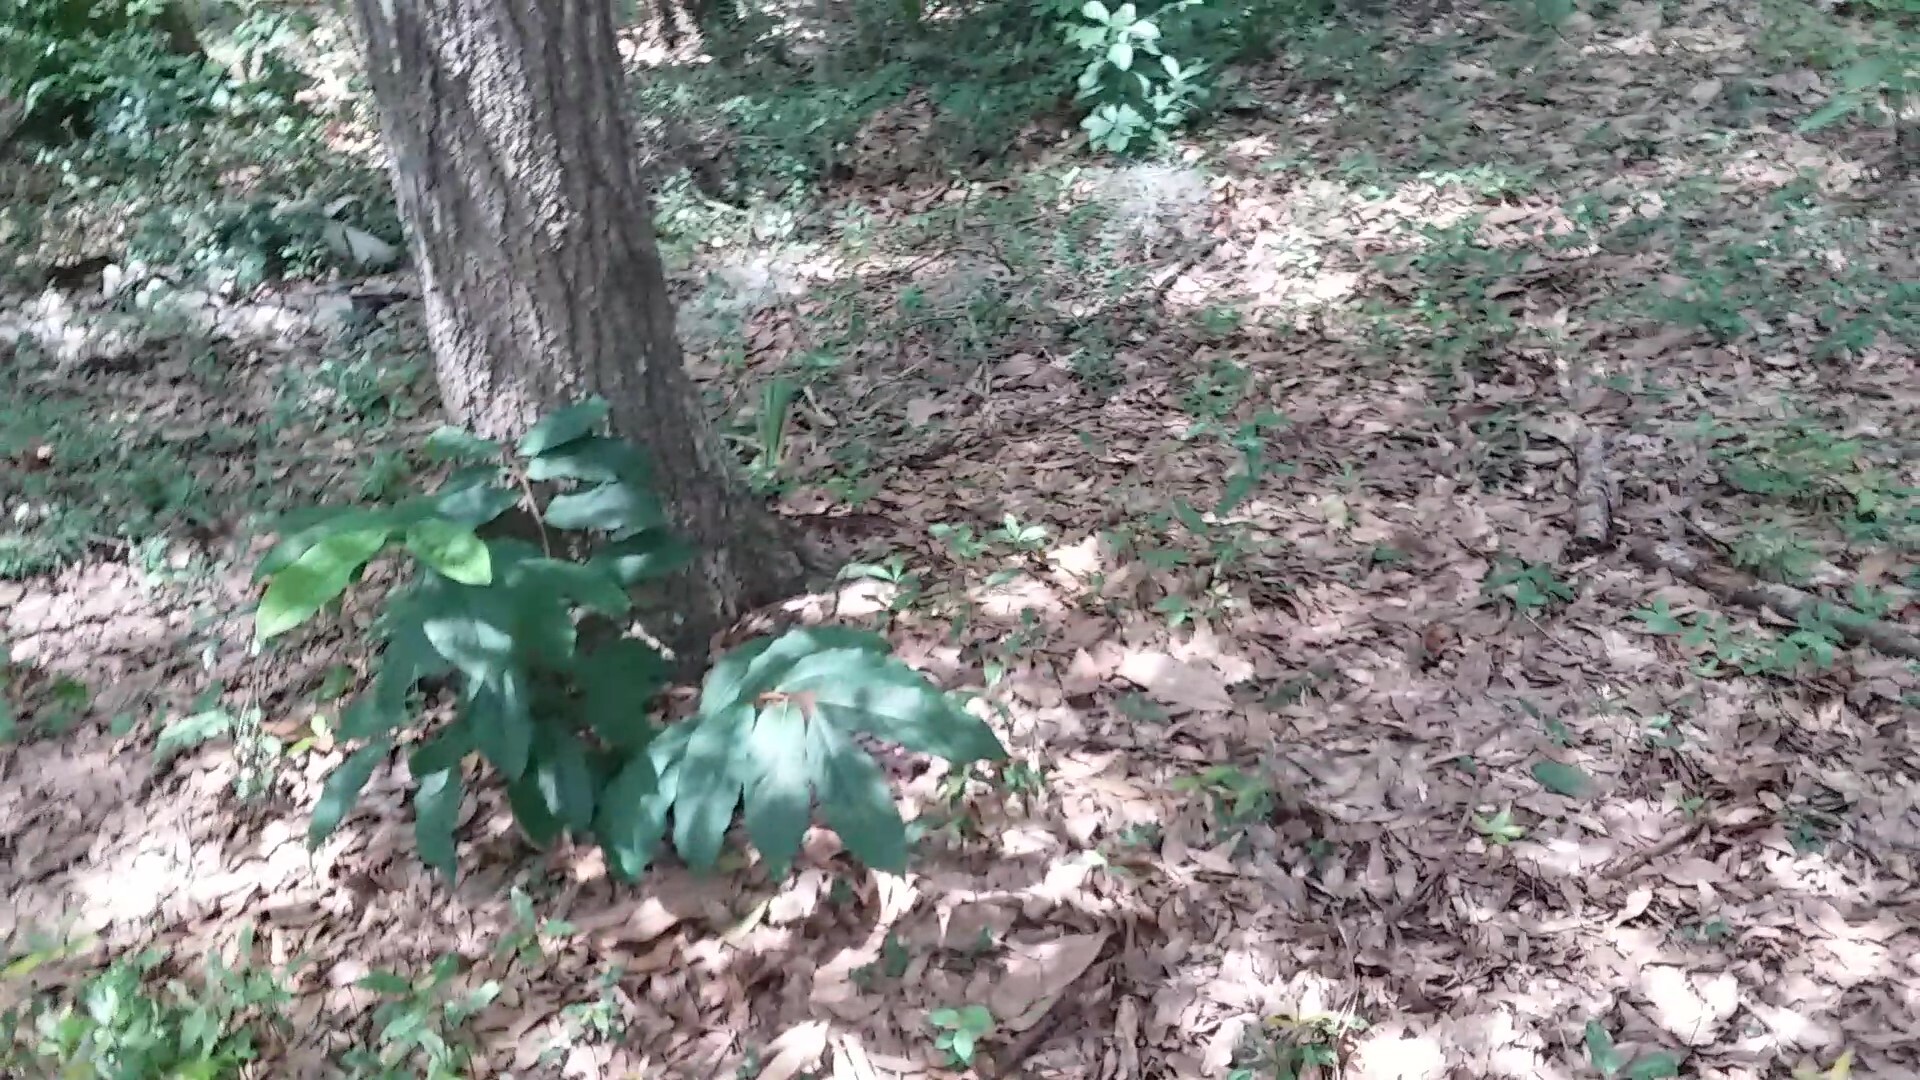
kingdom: Plantae
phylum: Tracheophyta
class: Magnoliopsida
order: Magnoliales
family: Annonaceae
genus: Asimina
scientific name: Asimina parviflora
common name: Dwarf pawpaw
